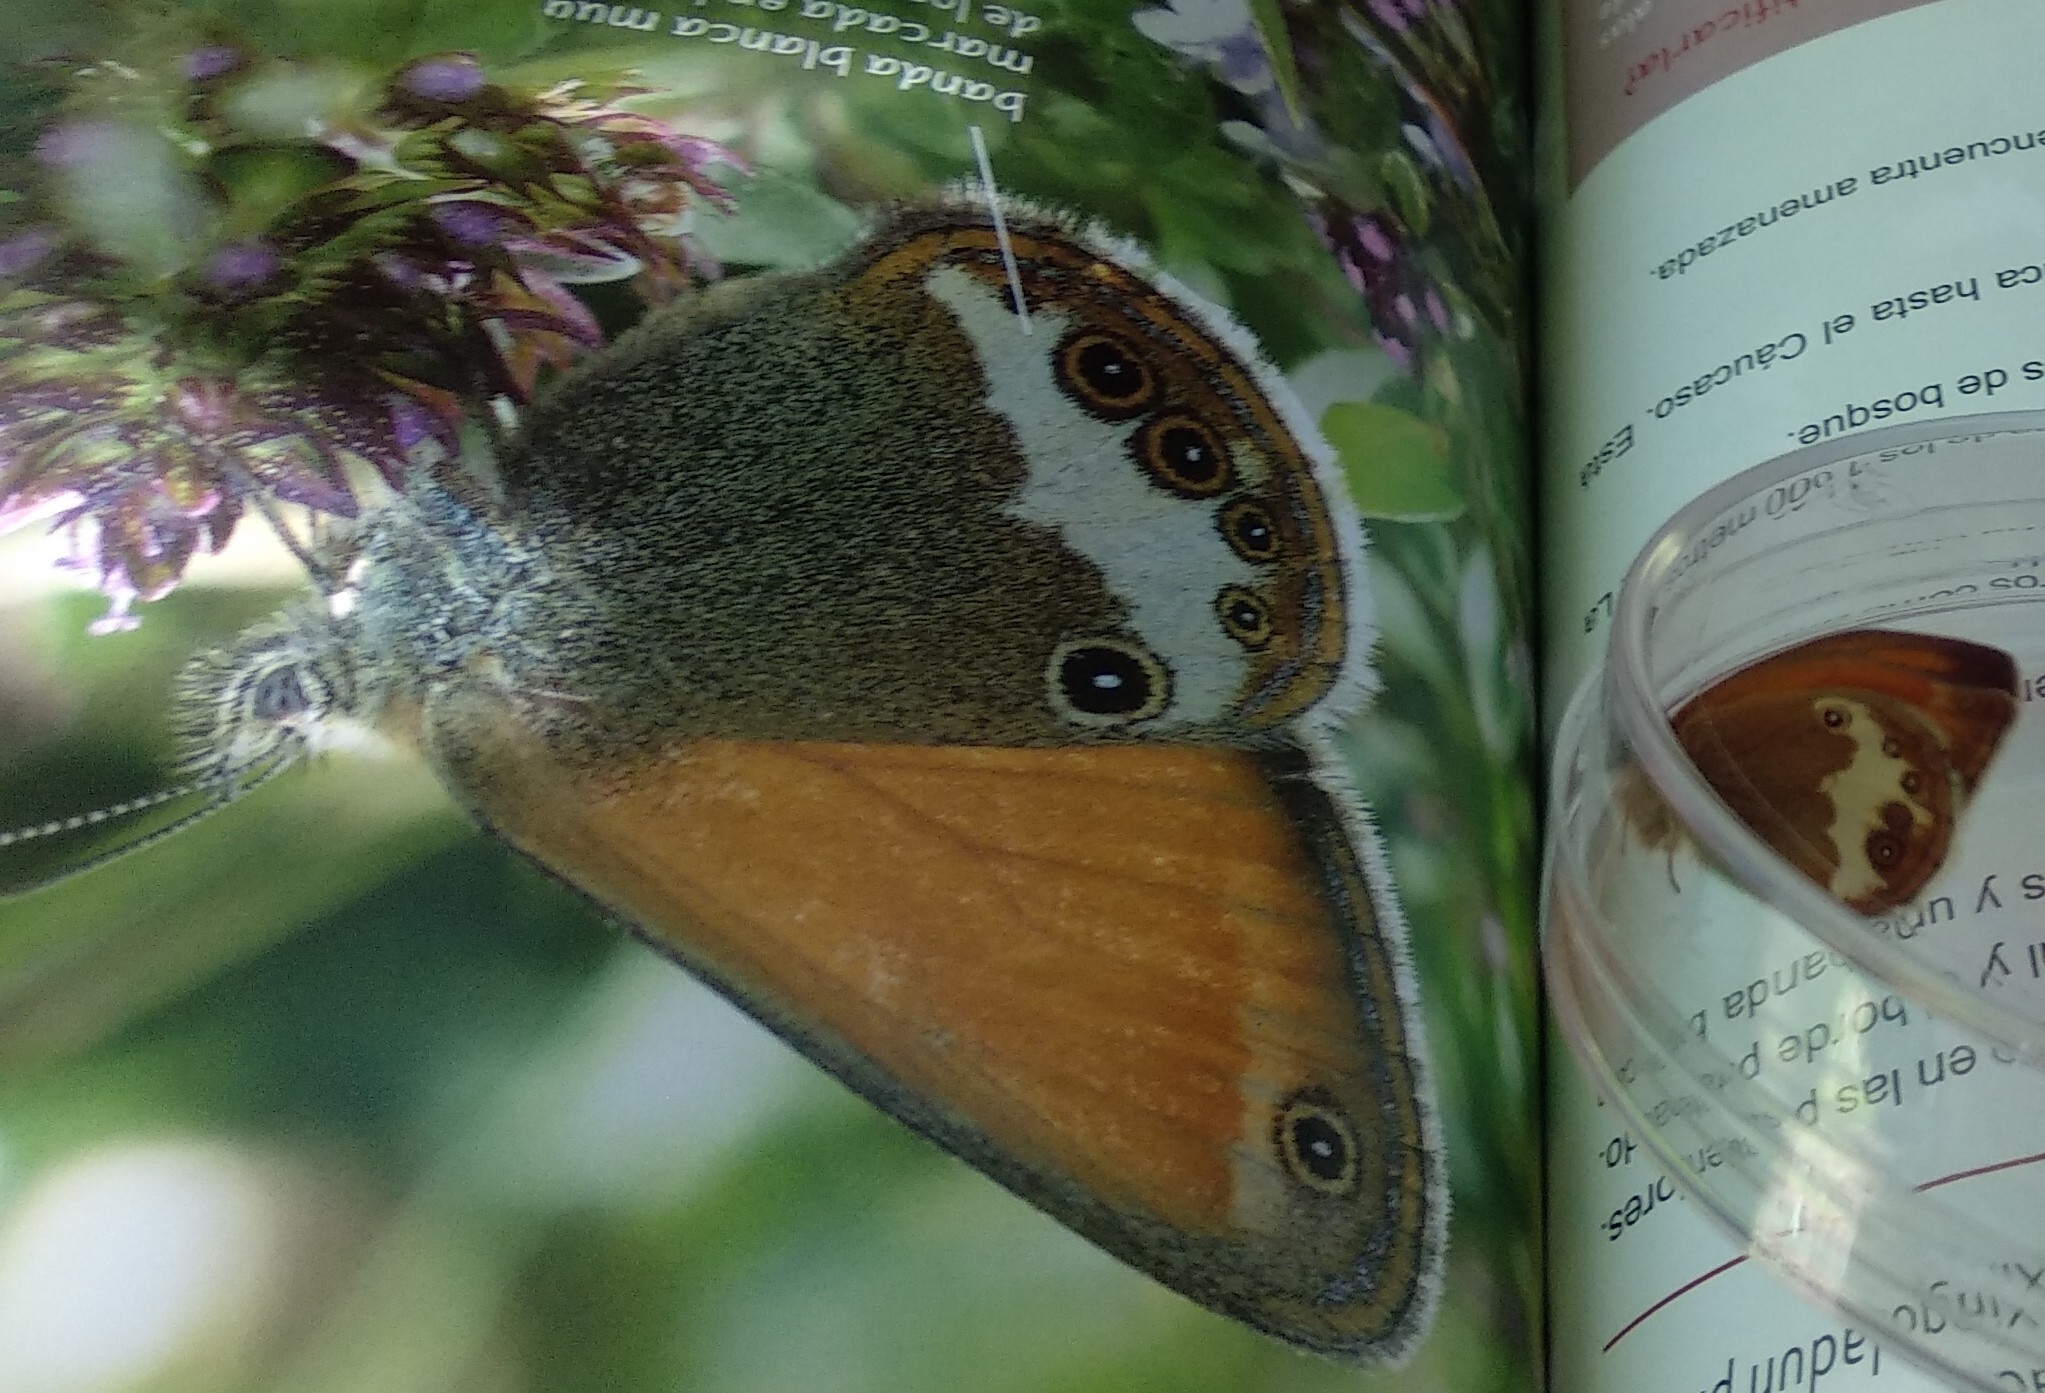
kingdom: Animalia
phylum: Arthropoda
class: Insecta
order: Lepidoptera
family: Nymphalidae
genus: Coenonympha
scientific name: Coenonympha arcania
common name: Pearly heath
